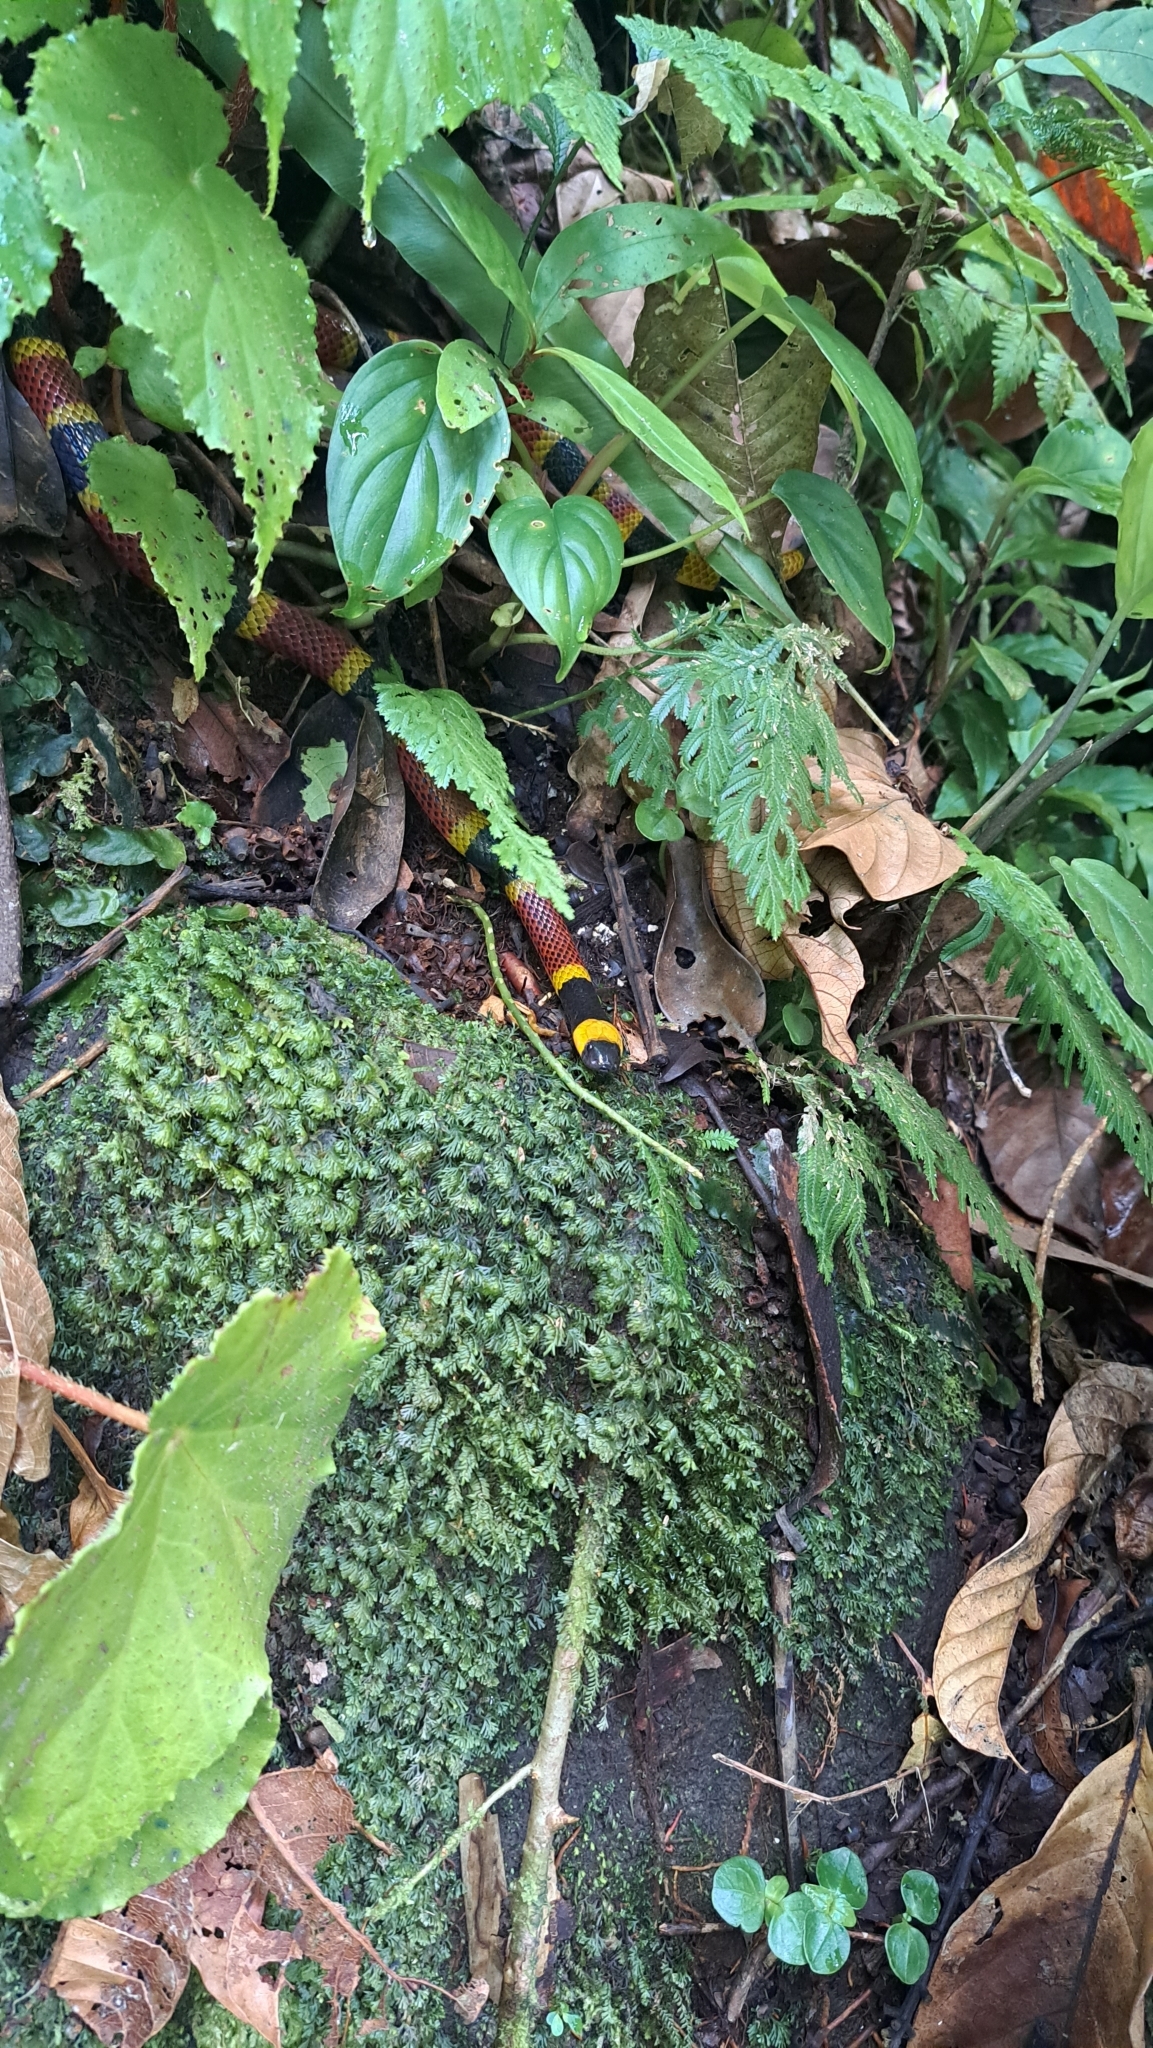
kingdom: Animalia
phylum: Chordata
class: Squamata
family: Elapidae
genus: Micrurus
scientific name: Micrurus mosquitensis
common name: Misquito coral snake
